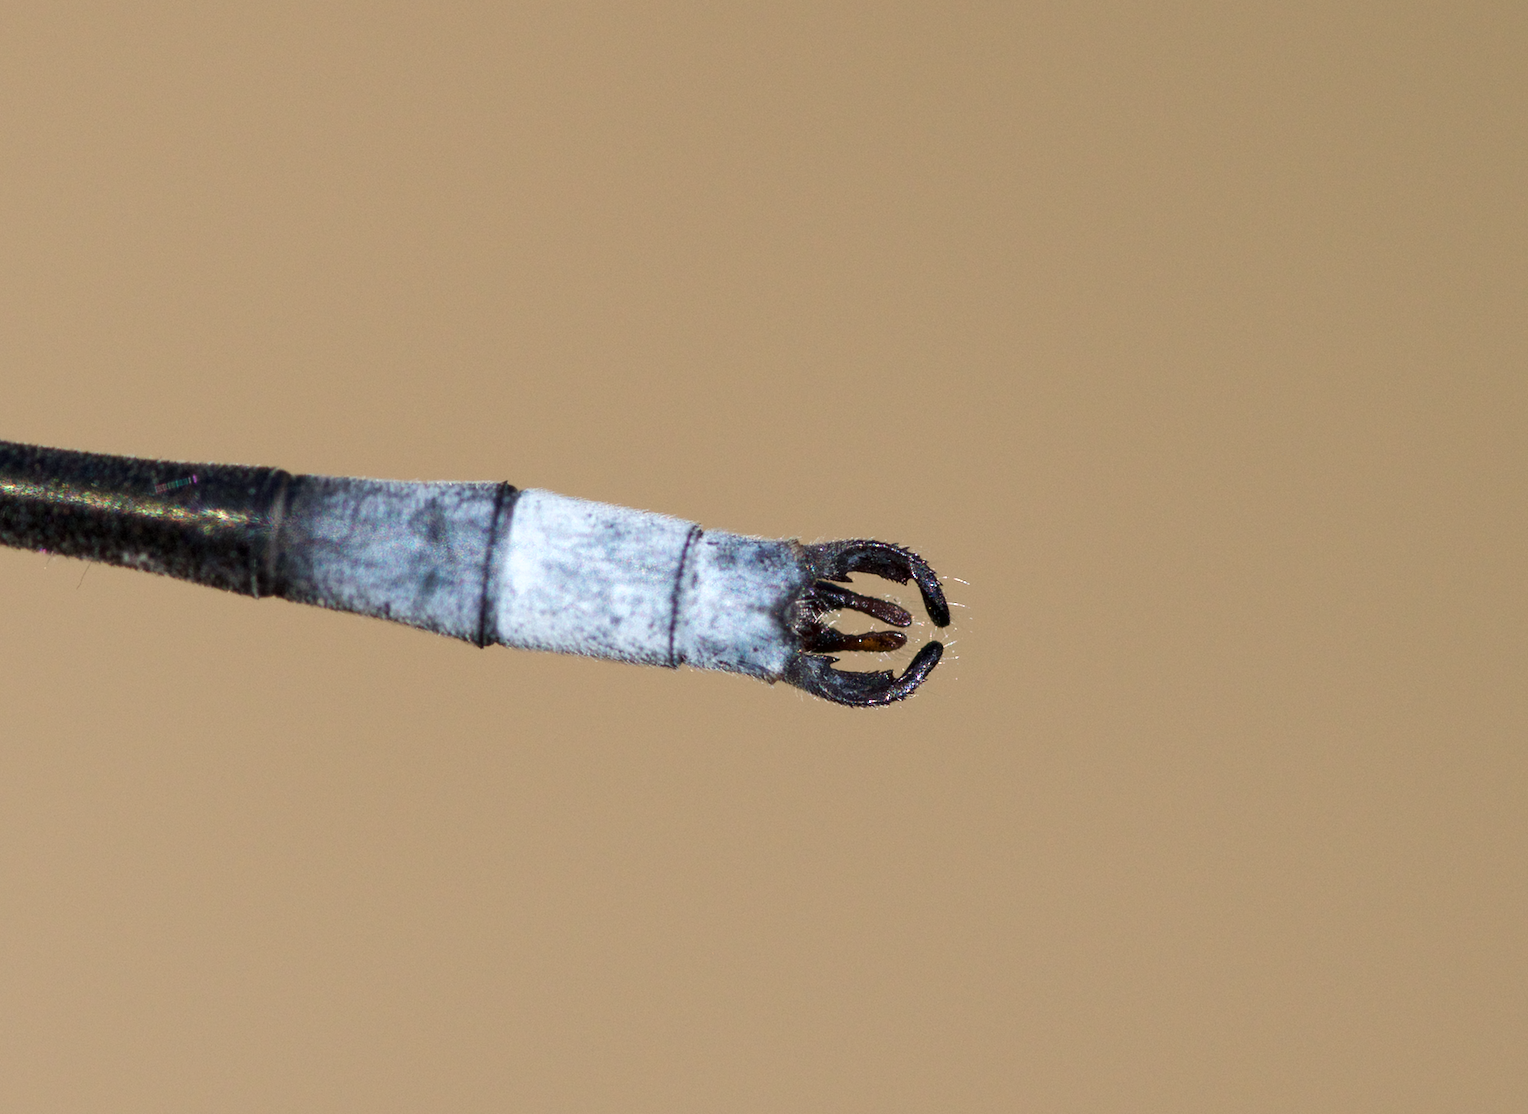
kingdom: Animalia
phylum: Arthropoda
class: Insecta
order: Odonata
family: Lestidae
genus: Lestes
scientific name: Lestes forcipatus
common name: Sweetflag spreadwing
